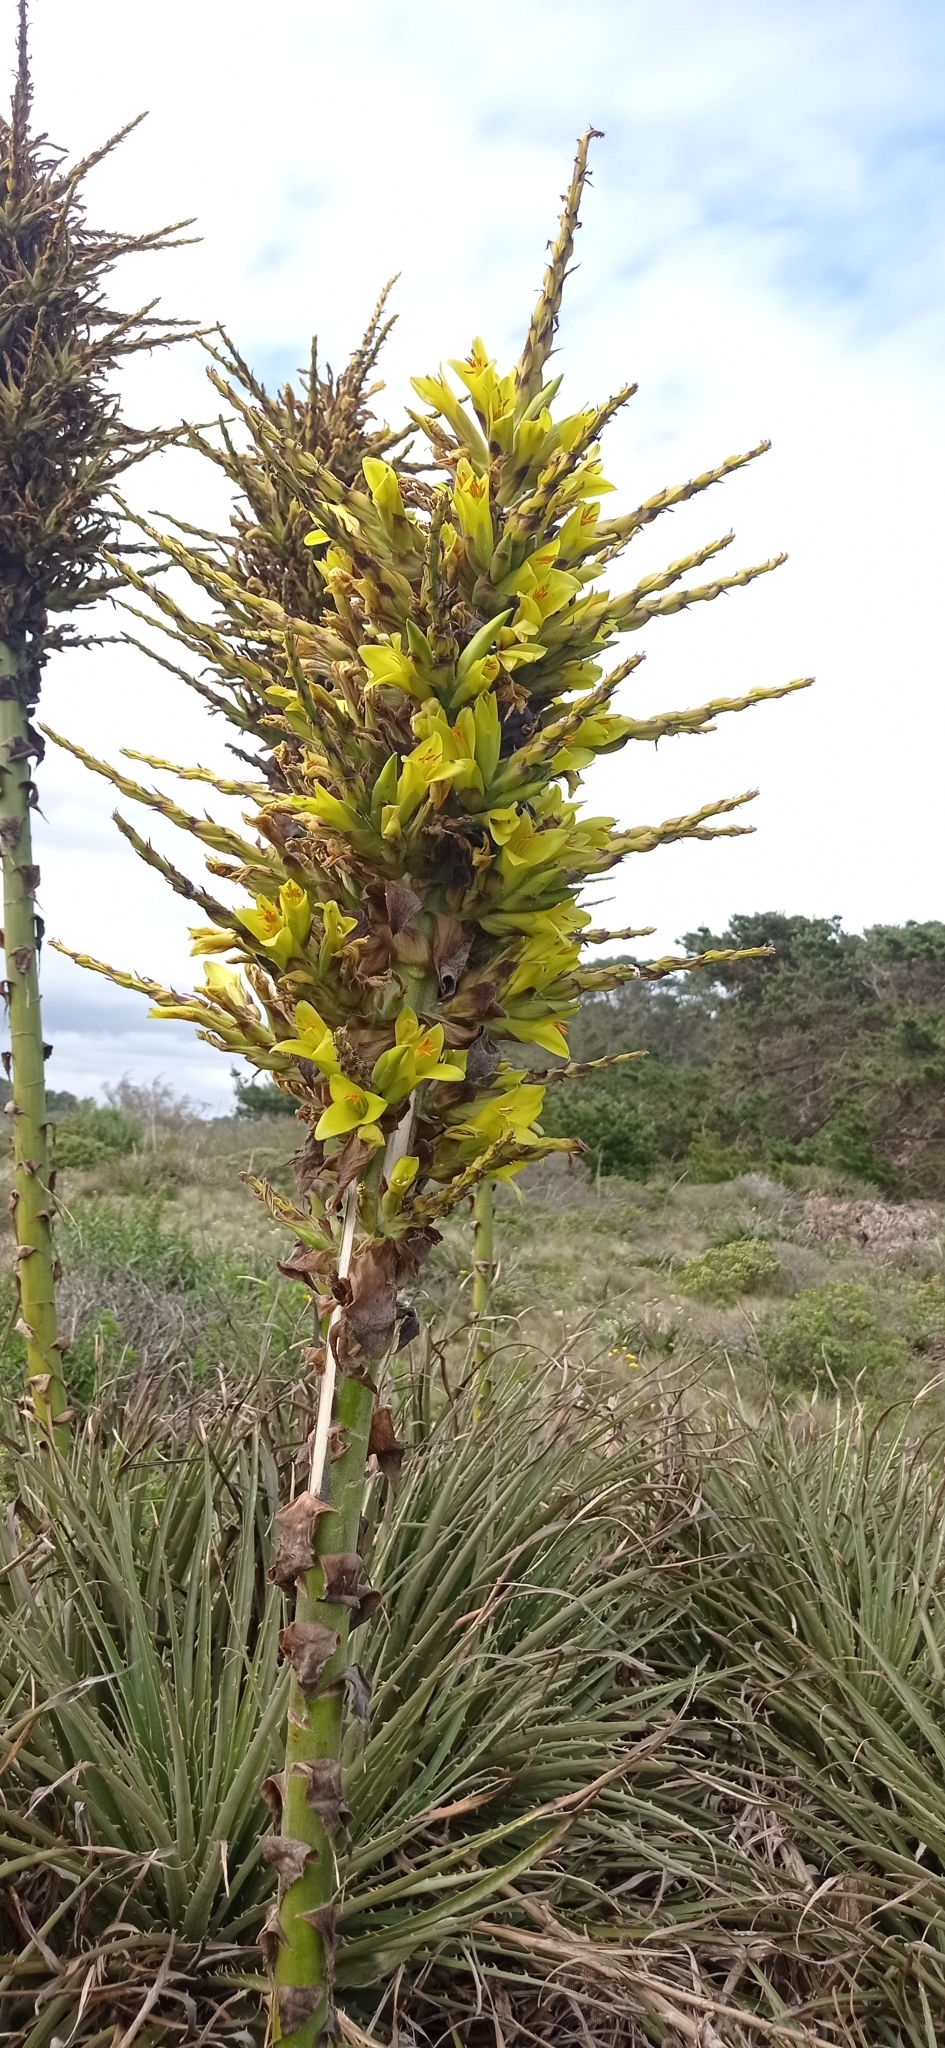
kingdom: Plantae
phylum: Tracheophyta
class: Liliopsida
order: Poales
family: Bromeliaceae
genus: Puya
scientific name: Puya chilensis
